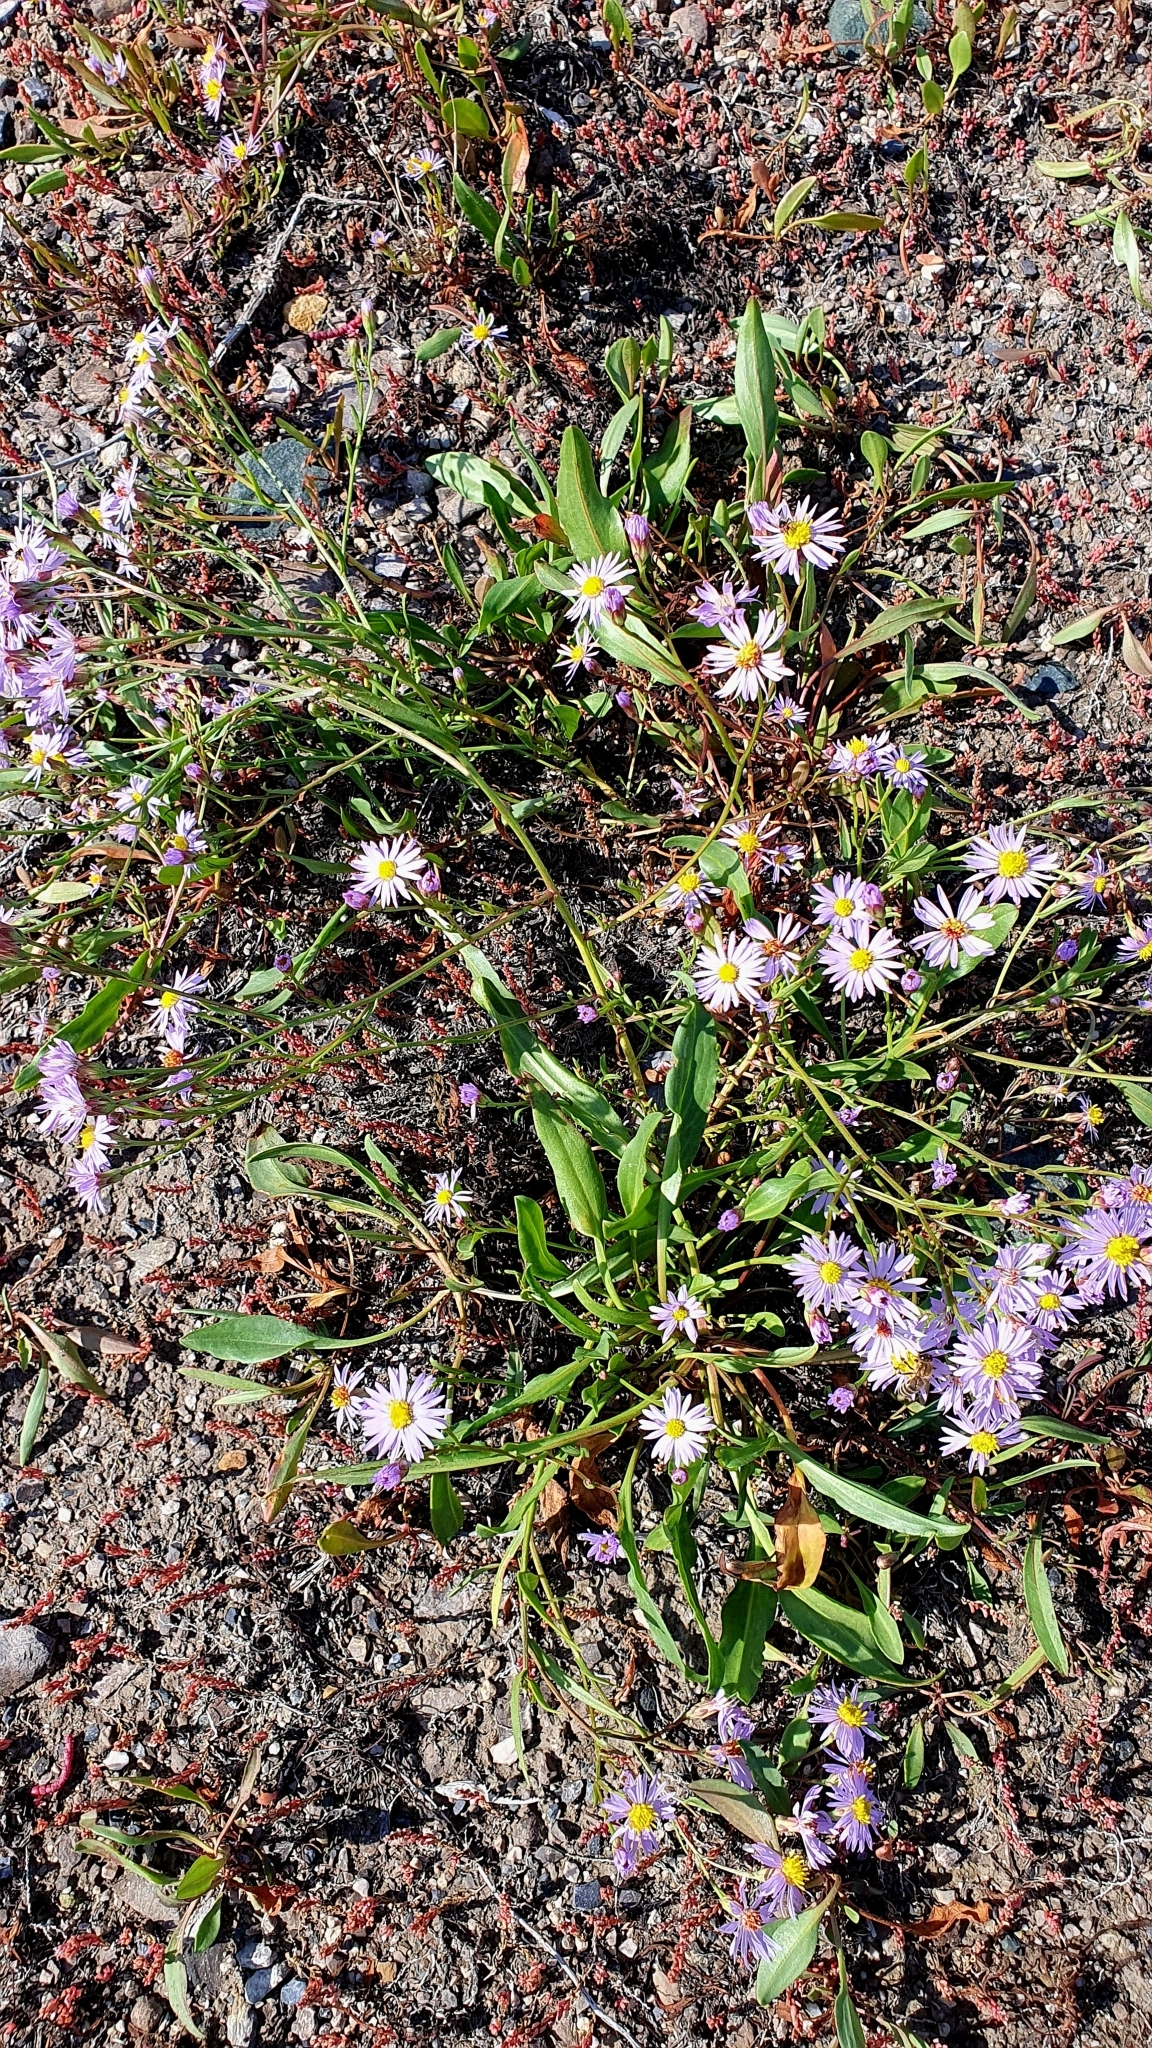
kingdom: Plantae
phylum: Tracheophyta
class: Magnoliopsida
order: Asterales
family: Asteraceae
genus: Tripolium
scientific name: Tripolium pannonicum
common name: Sea aster
